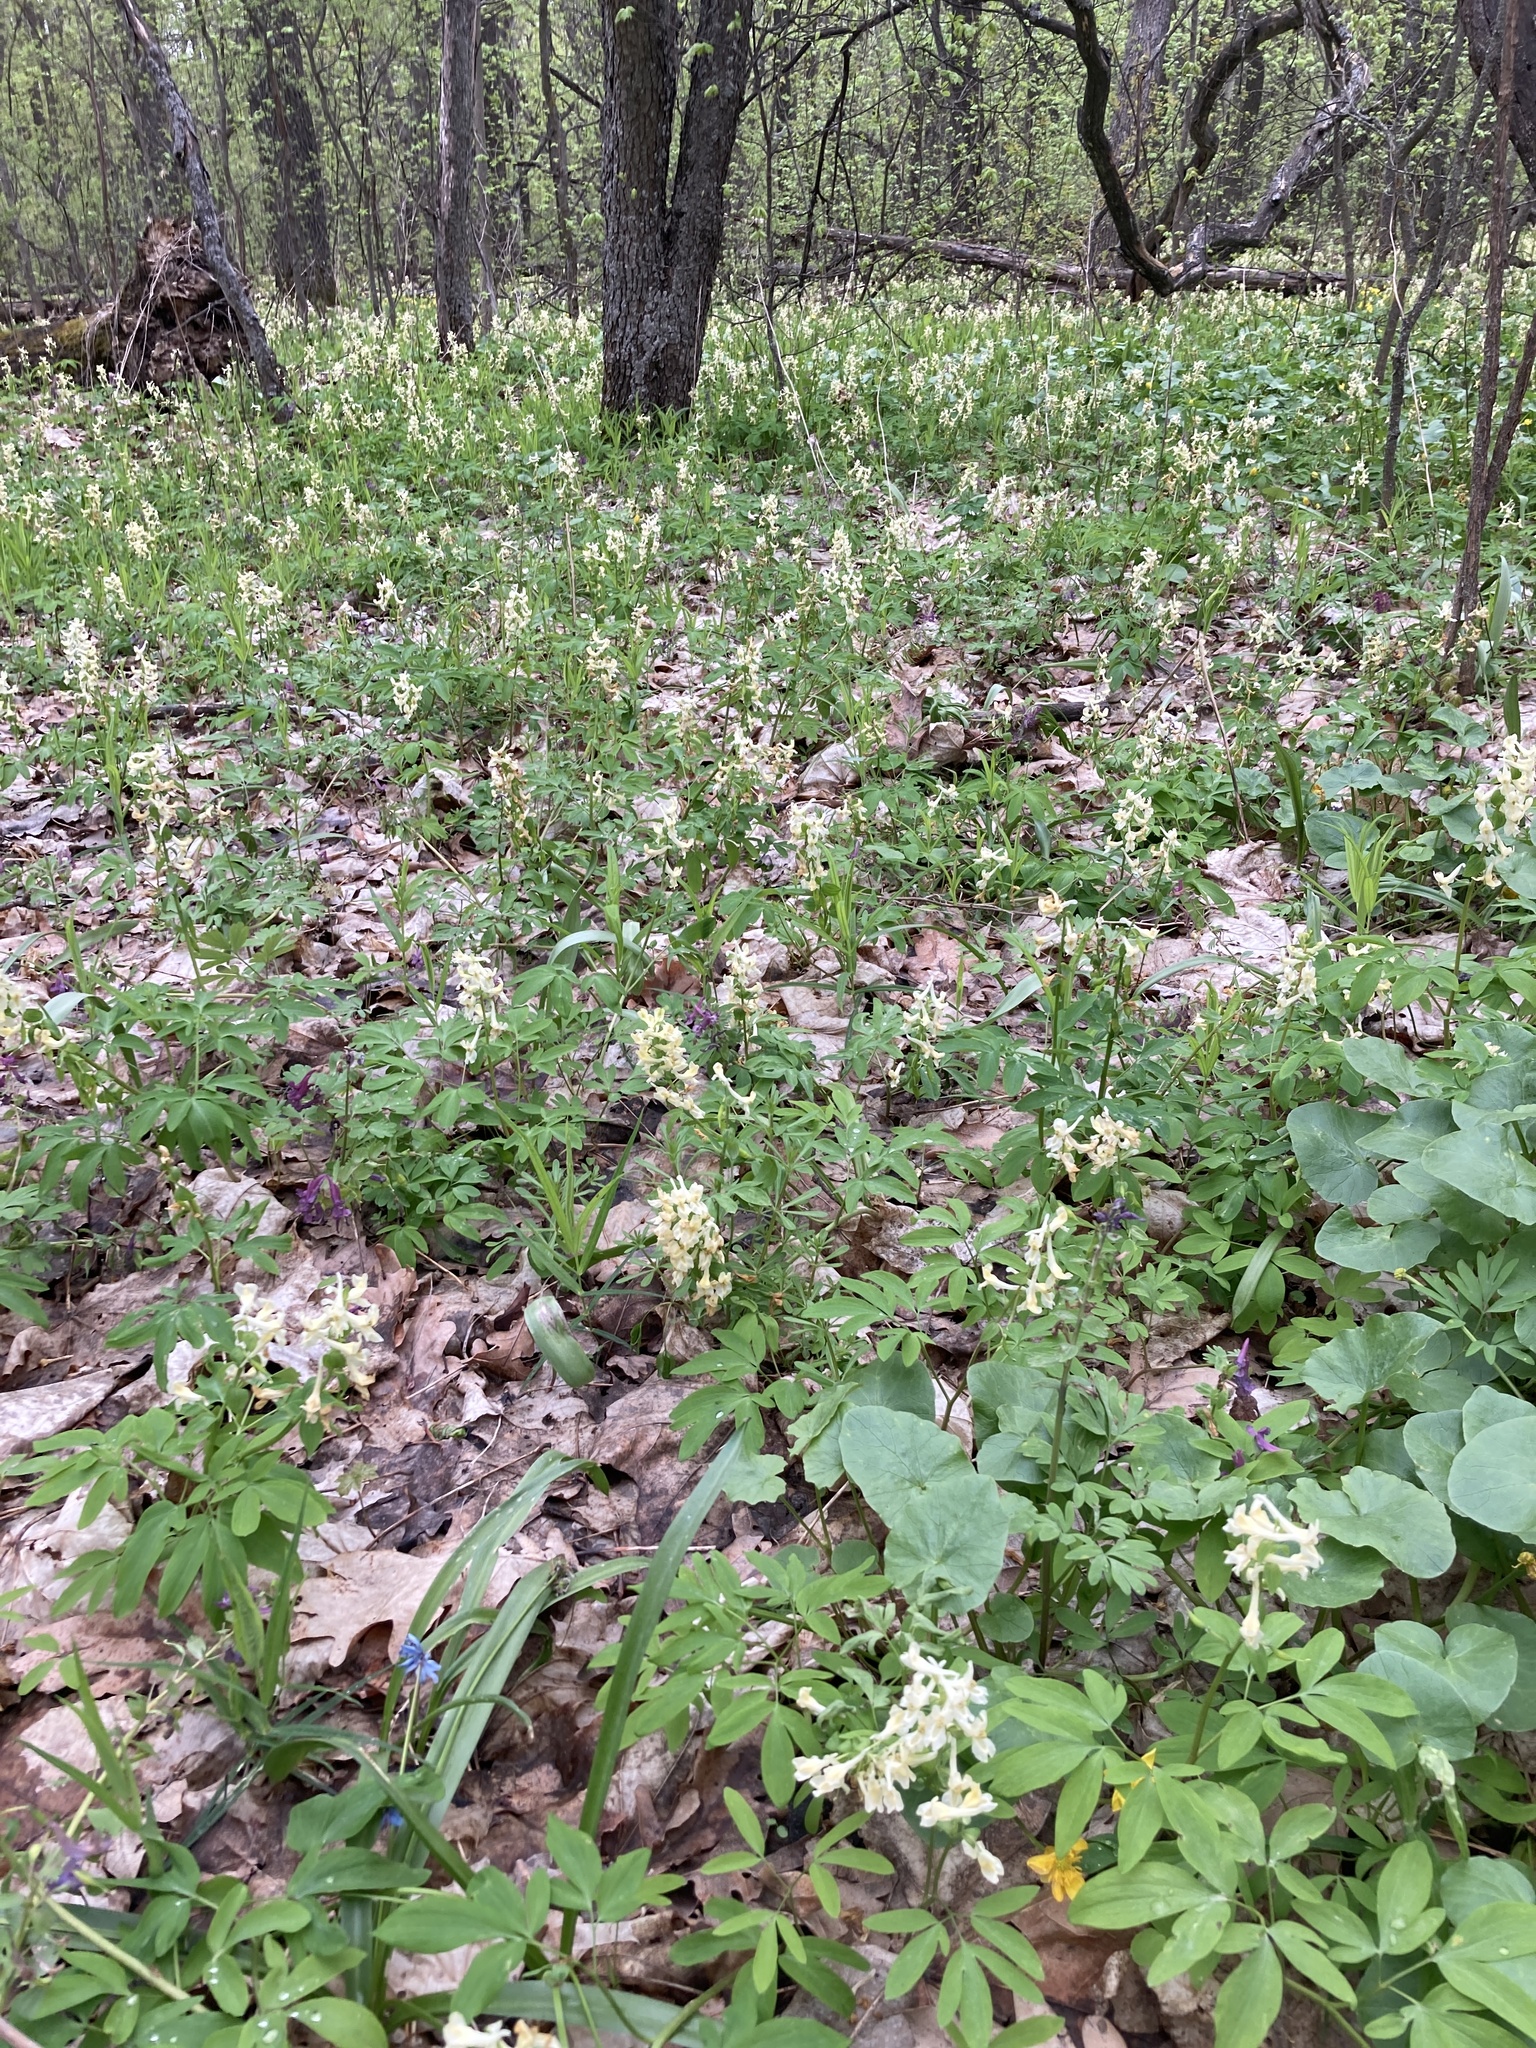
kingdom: Plantae
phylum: Tracheophyta
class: Magnoliopsida
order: Ranunculales
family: Papaveraceae
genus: Corydalis
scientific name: Corydalis cava
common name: Hollowroot
